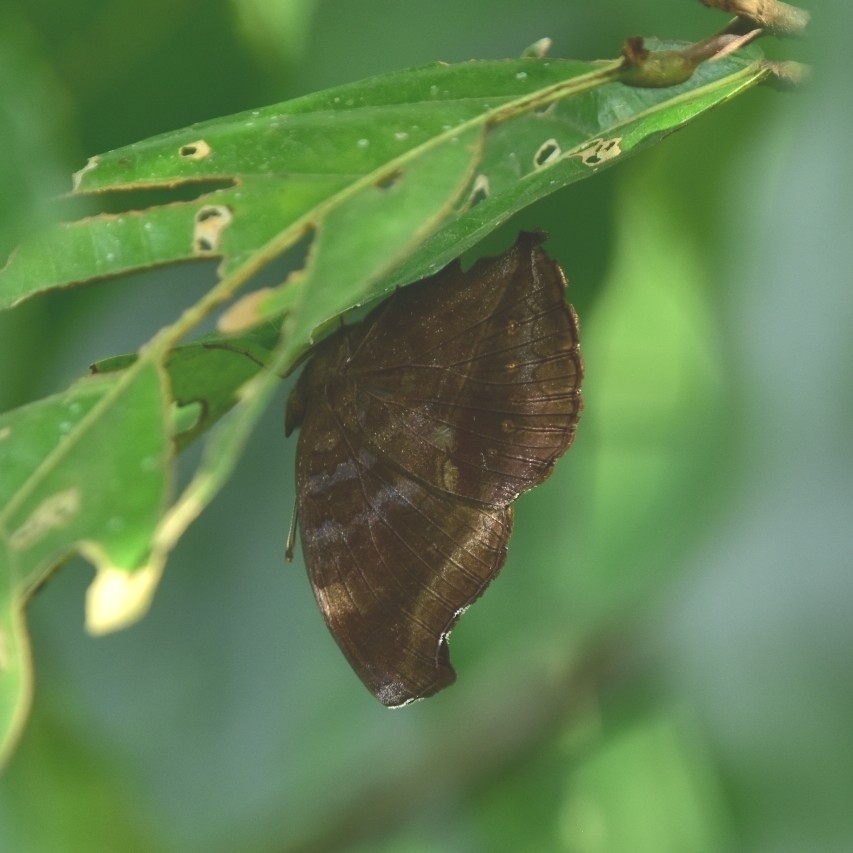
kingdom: Animalia
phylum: Arthropoda
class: Insecta
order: Lepidoptera
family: Nymphalidae
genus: Junonia
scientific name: Junonia iphita
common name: Chocolate pansy
